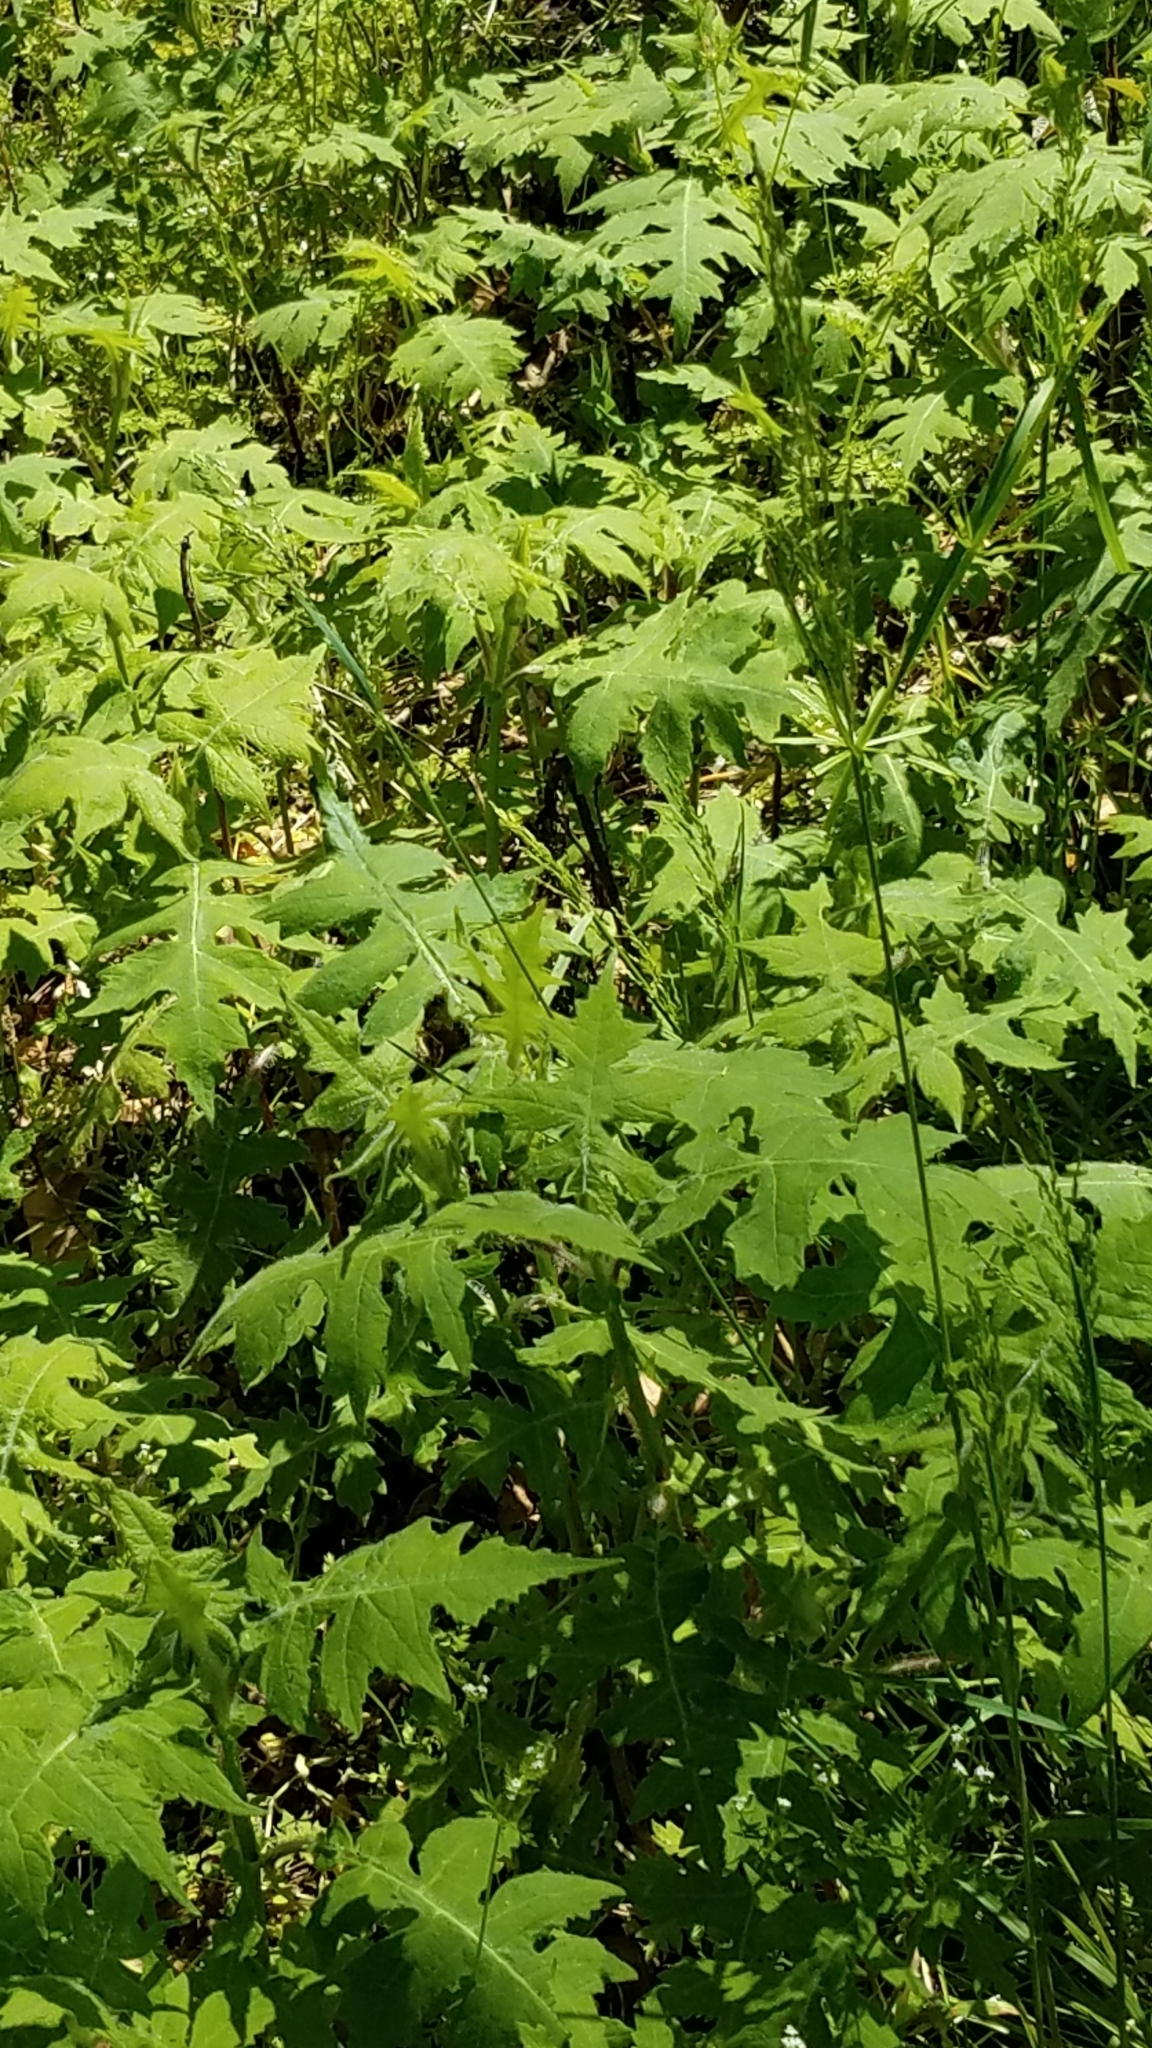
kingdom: Plantae
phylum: Tracheophyta
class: Magnoliopsida
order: Asterales
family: Asteraceae
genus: Polymnia
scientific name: Polymnia canadensis
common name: Pale-flowered leafcup
